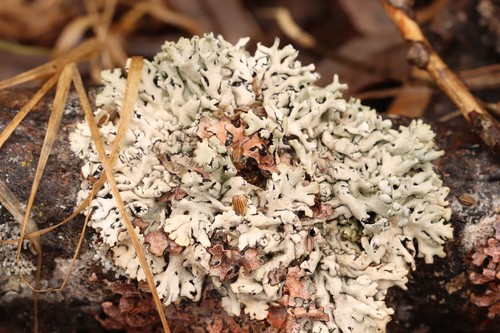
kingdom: Fungi
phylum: Ascomycota
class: Lecanoromycetes
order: Lecanorales
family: Parmeliaceae
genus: Hypogymnia
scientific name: Hypogymnia
